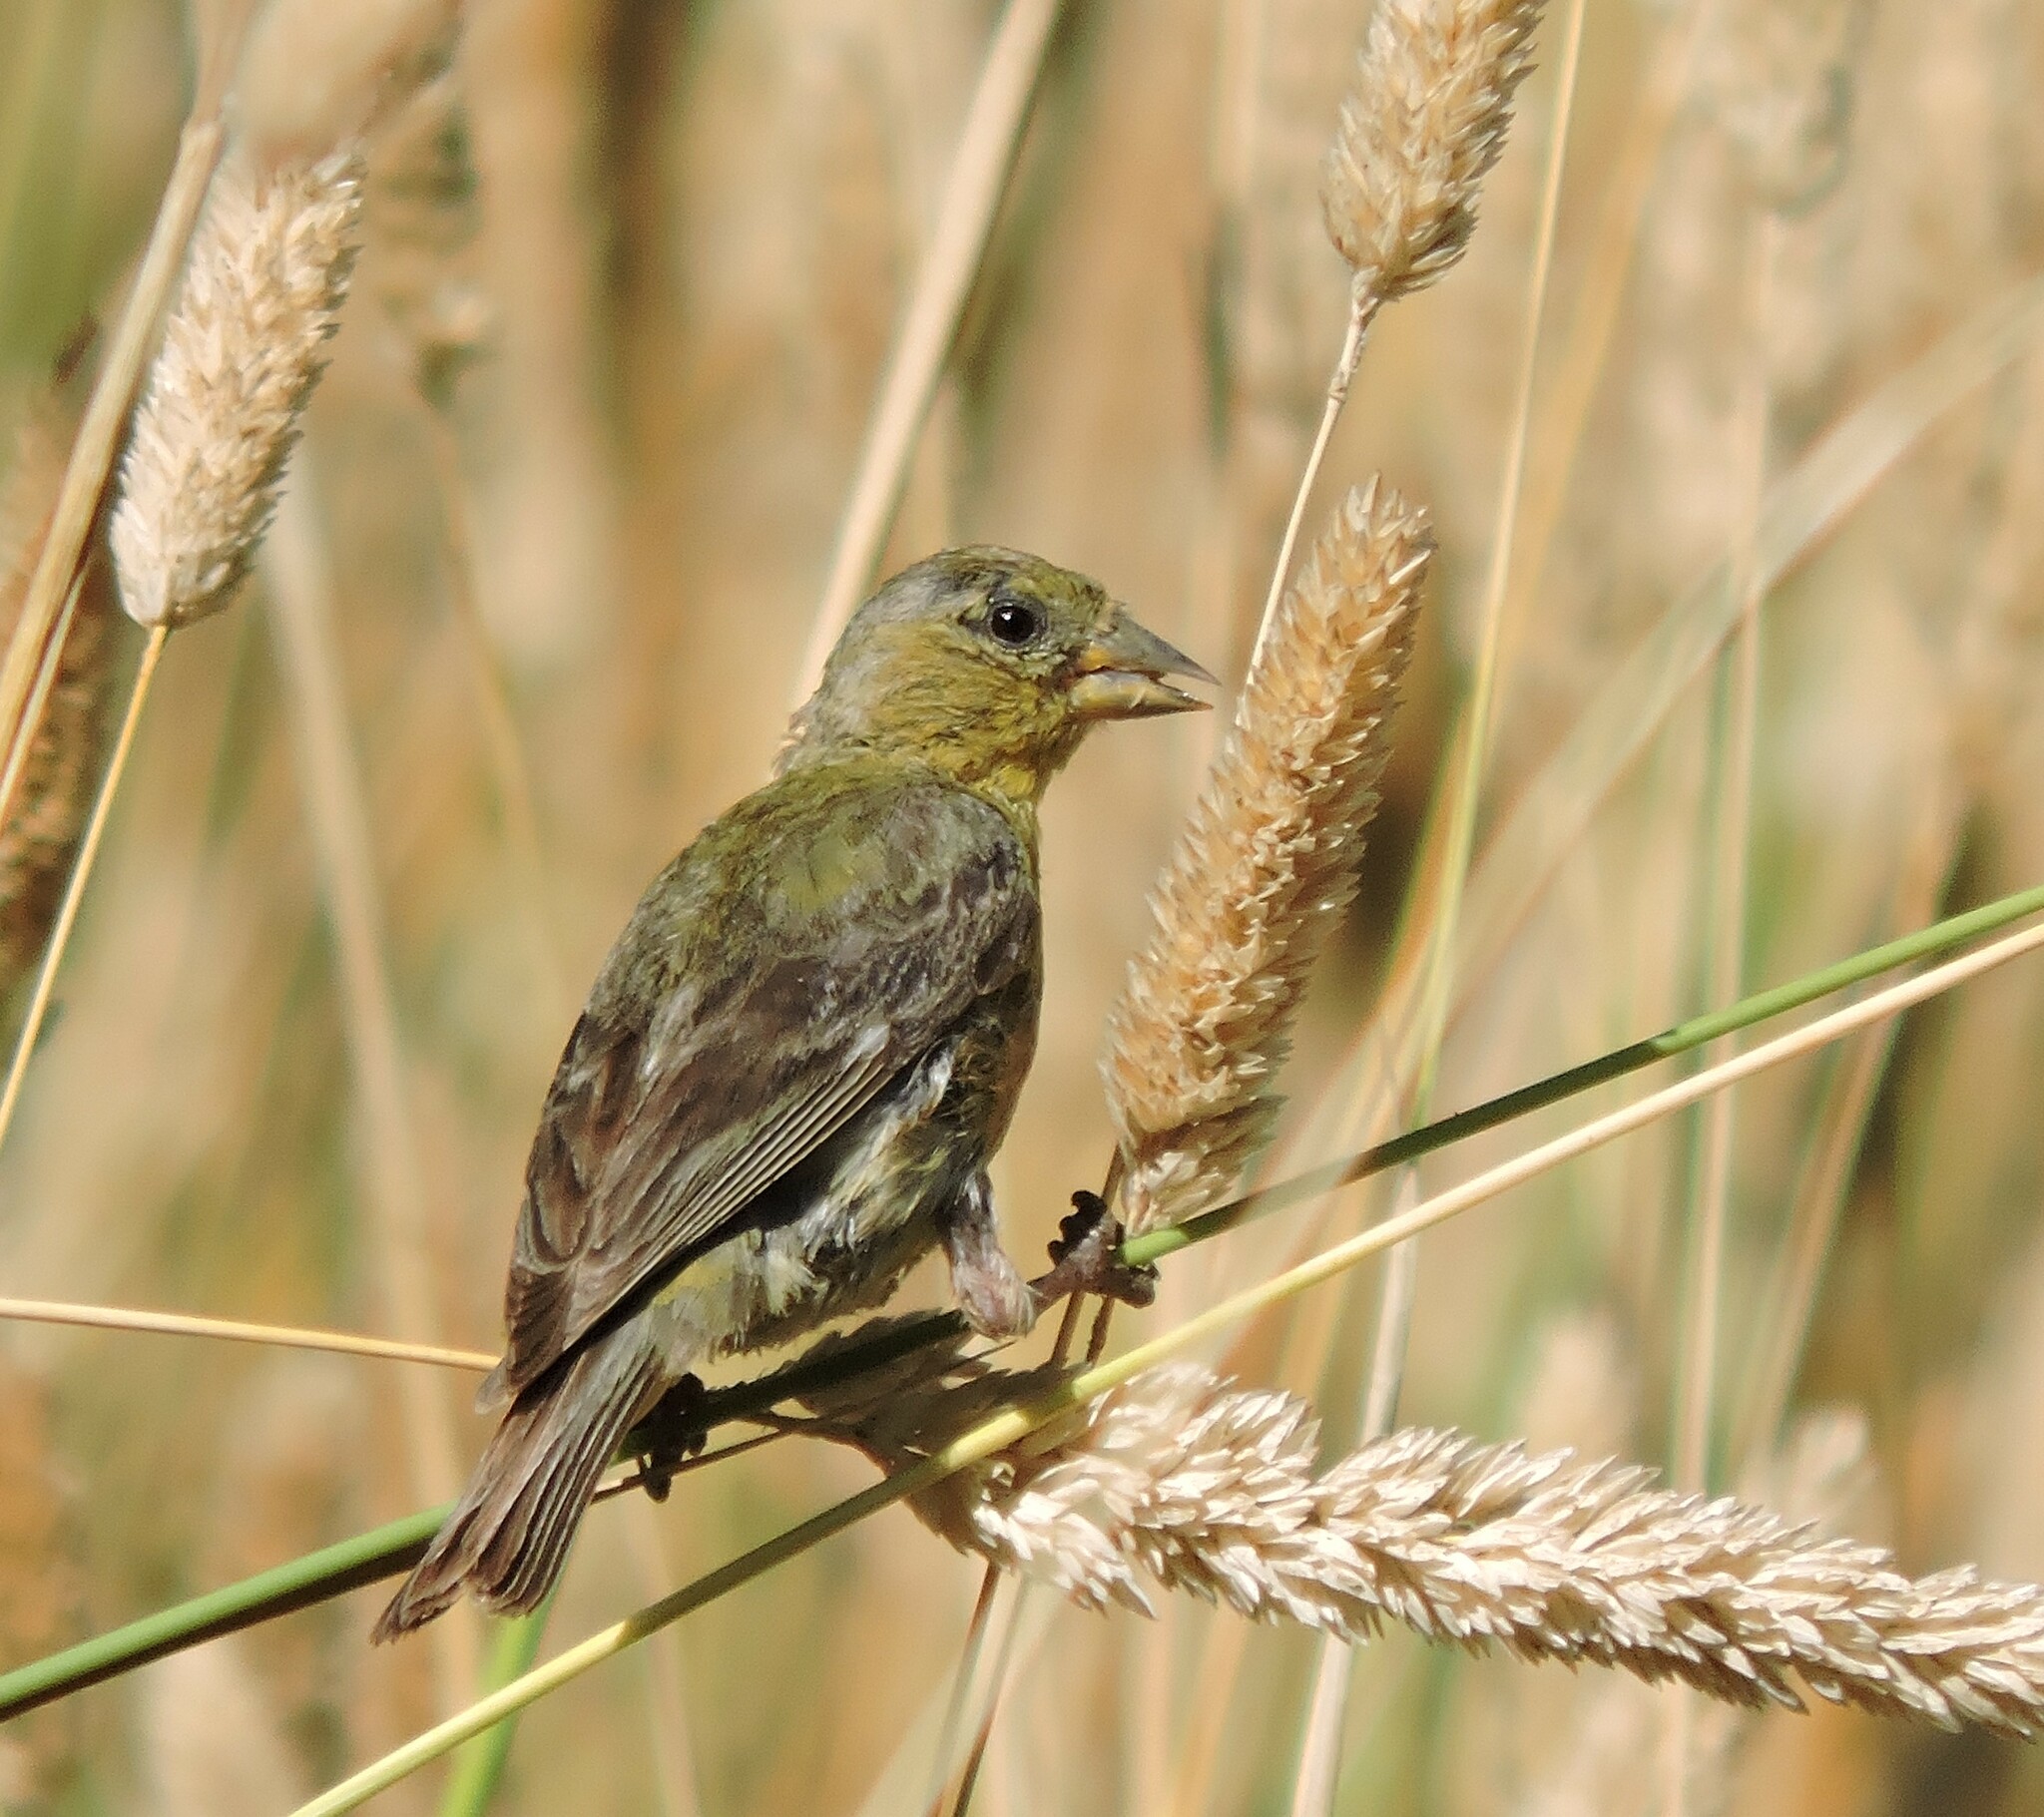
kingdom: Animalia
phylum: Chordata
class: Aves
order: Passeriformes
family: Fringillidae
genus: Spinus
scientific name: Spinus psaltria
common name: Lesser goldfinch
